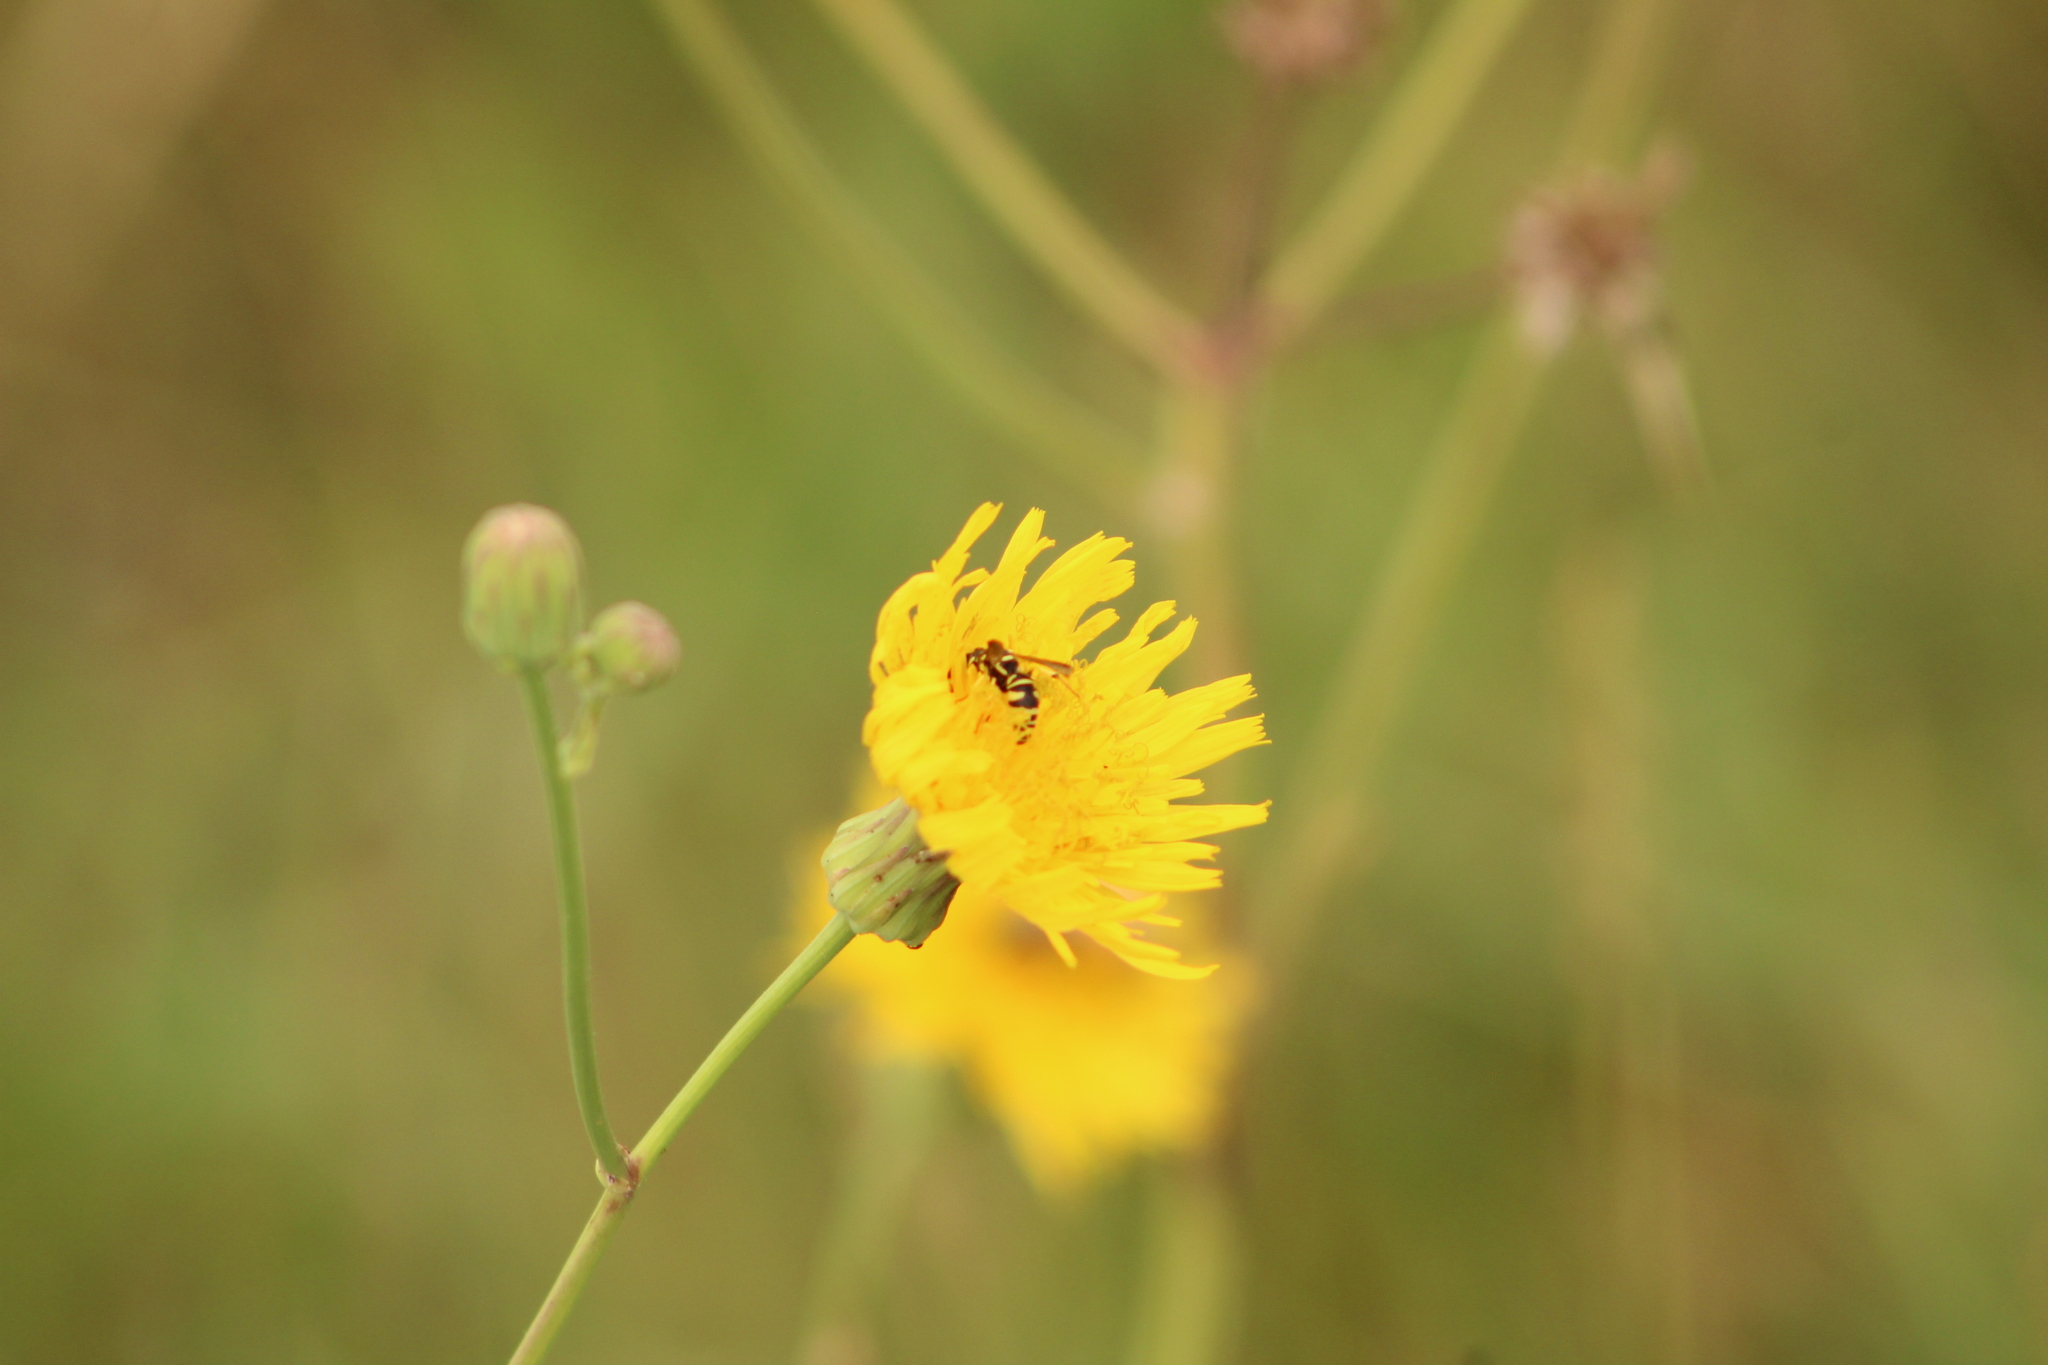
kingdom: Animalia
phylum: Arthropoda
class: Insecta
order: Hymenoptera
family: Eumenidae
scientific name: Eumenidae
